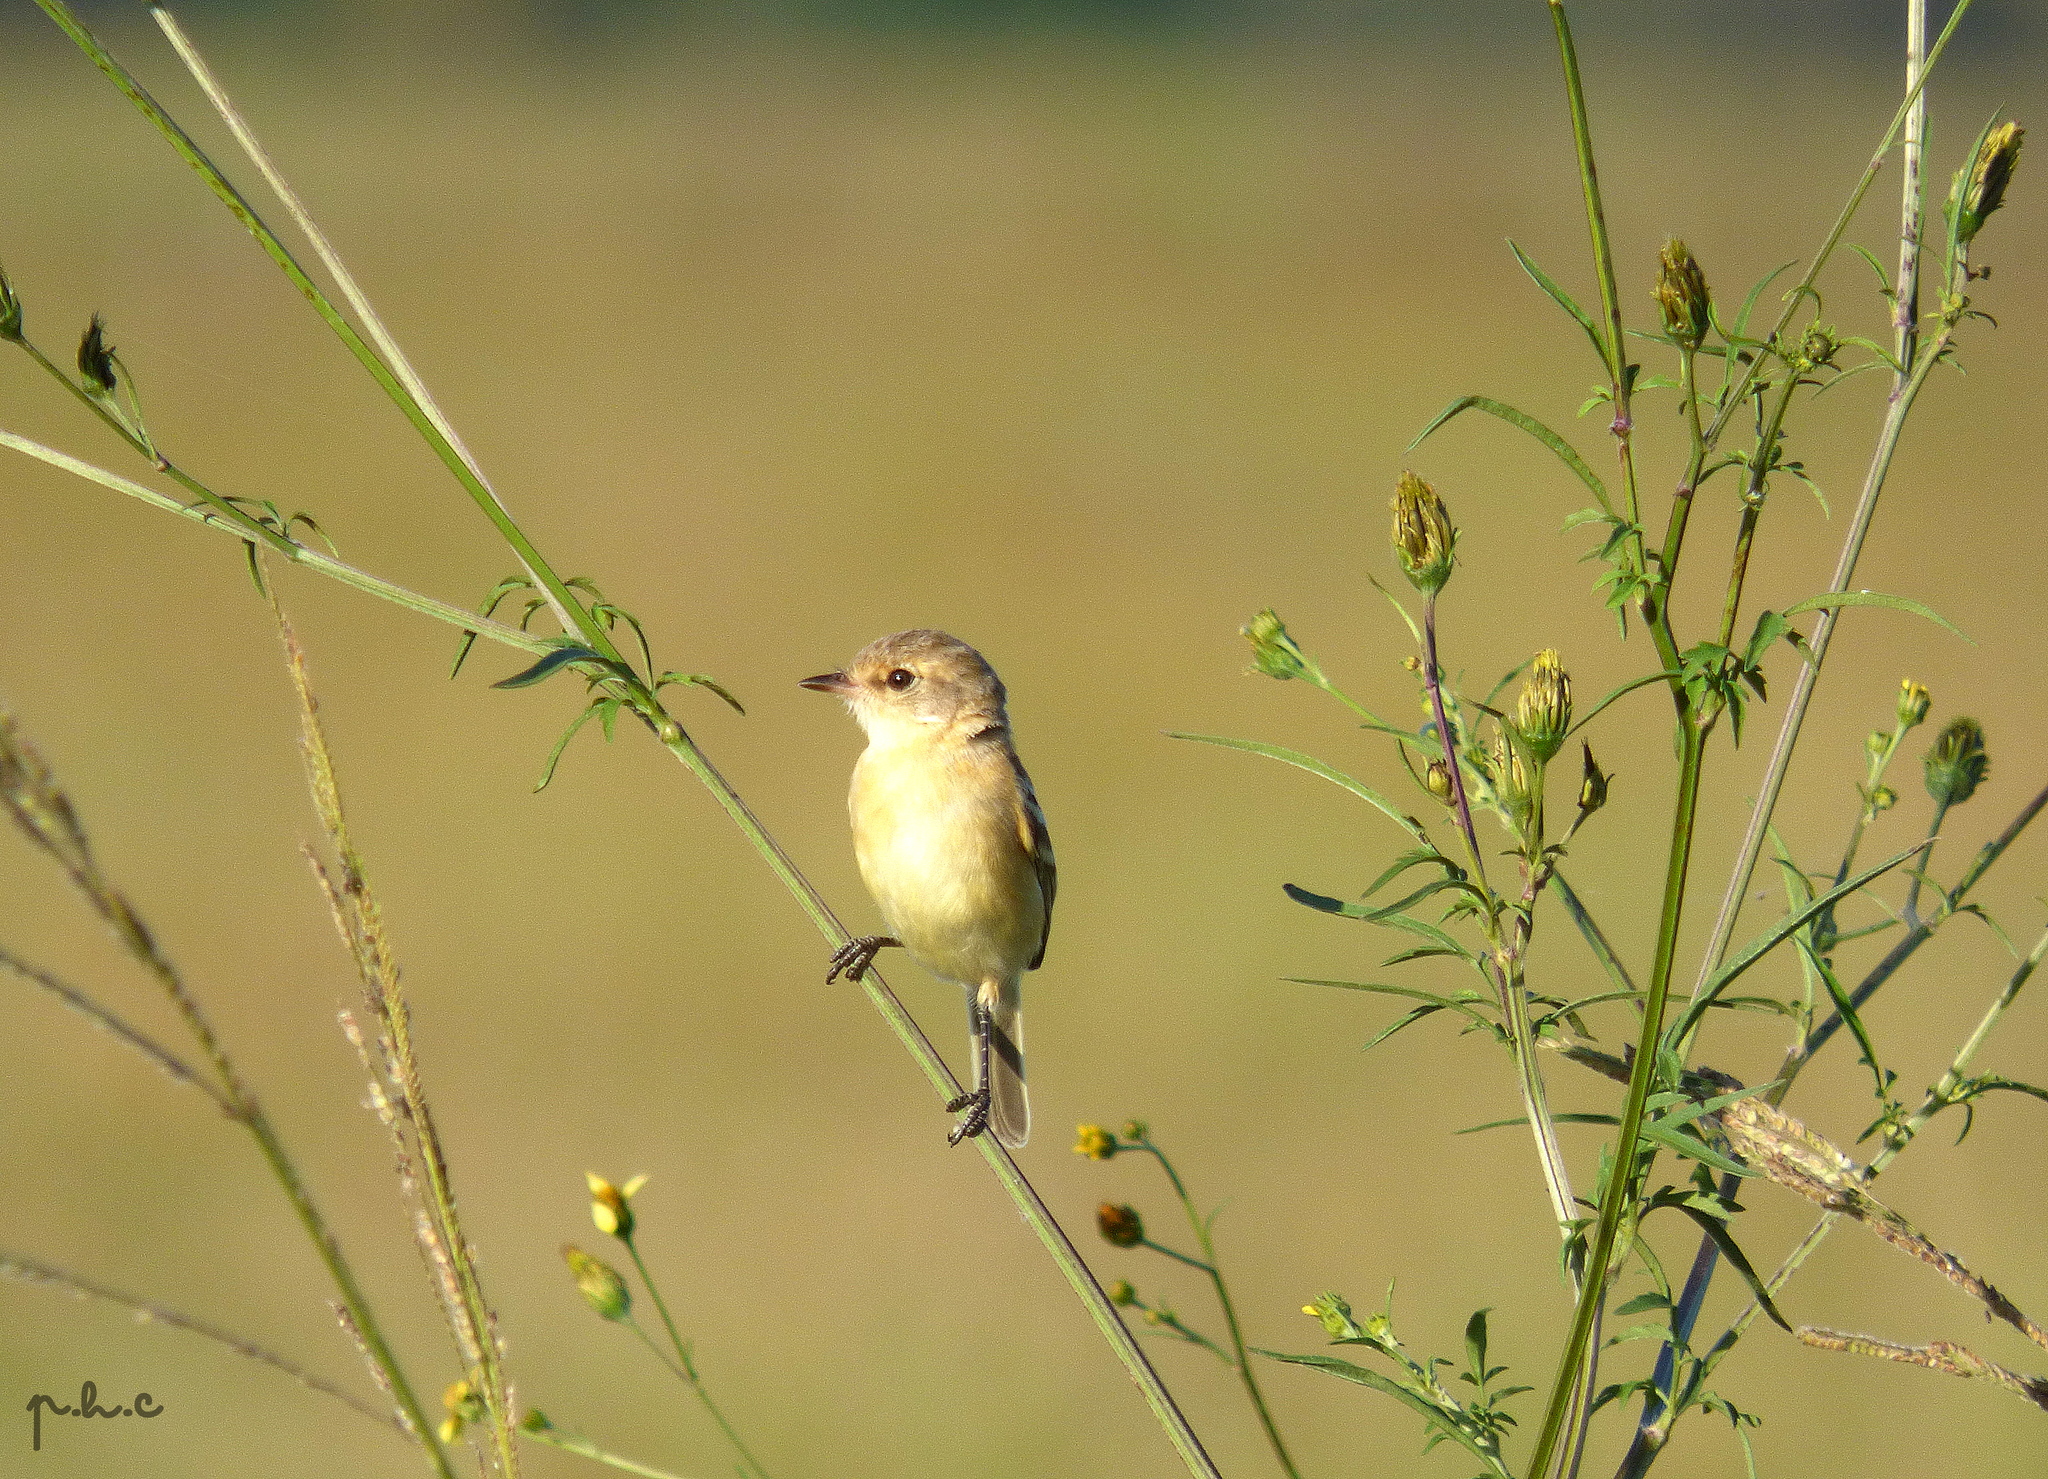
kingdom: Animalia
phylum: Chordata
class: Aves
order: Passeriformes
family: Tyrannidae
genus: Polystictus
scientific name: Polystictus pectoralis
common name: Bearded tachuri
